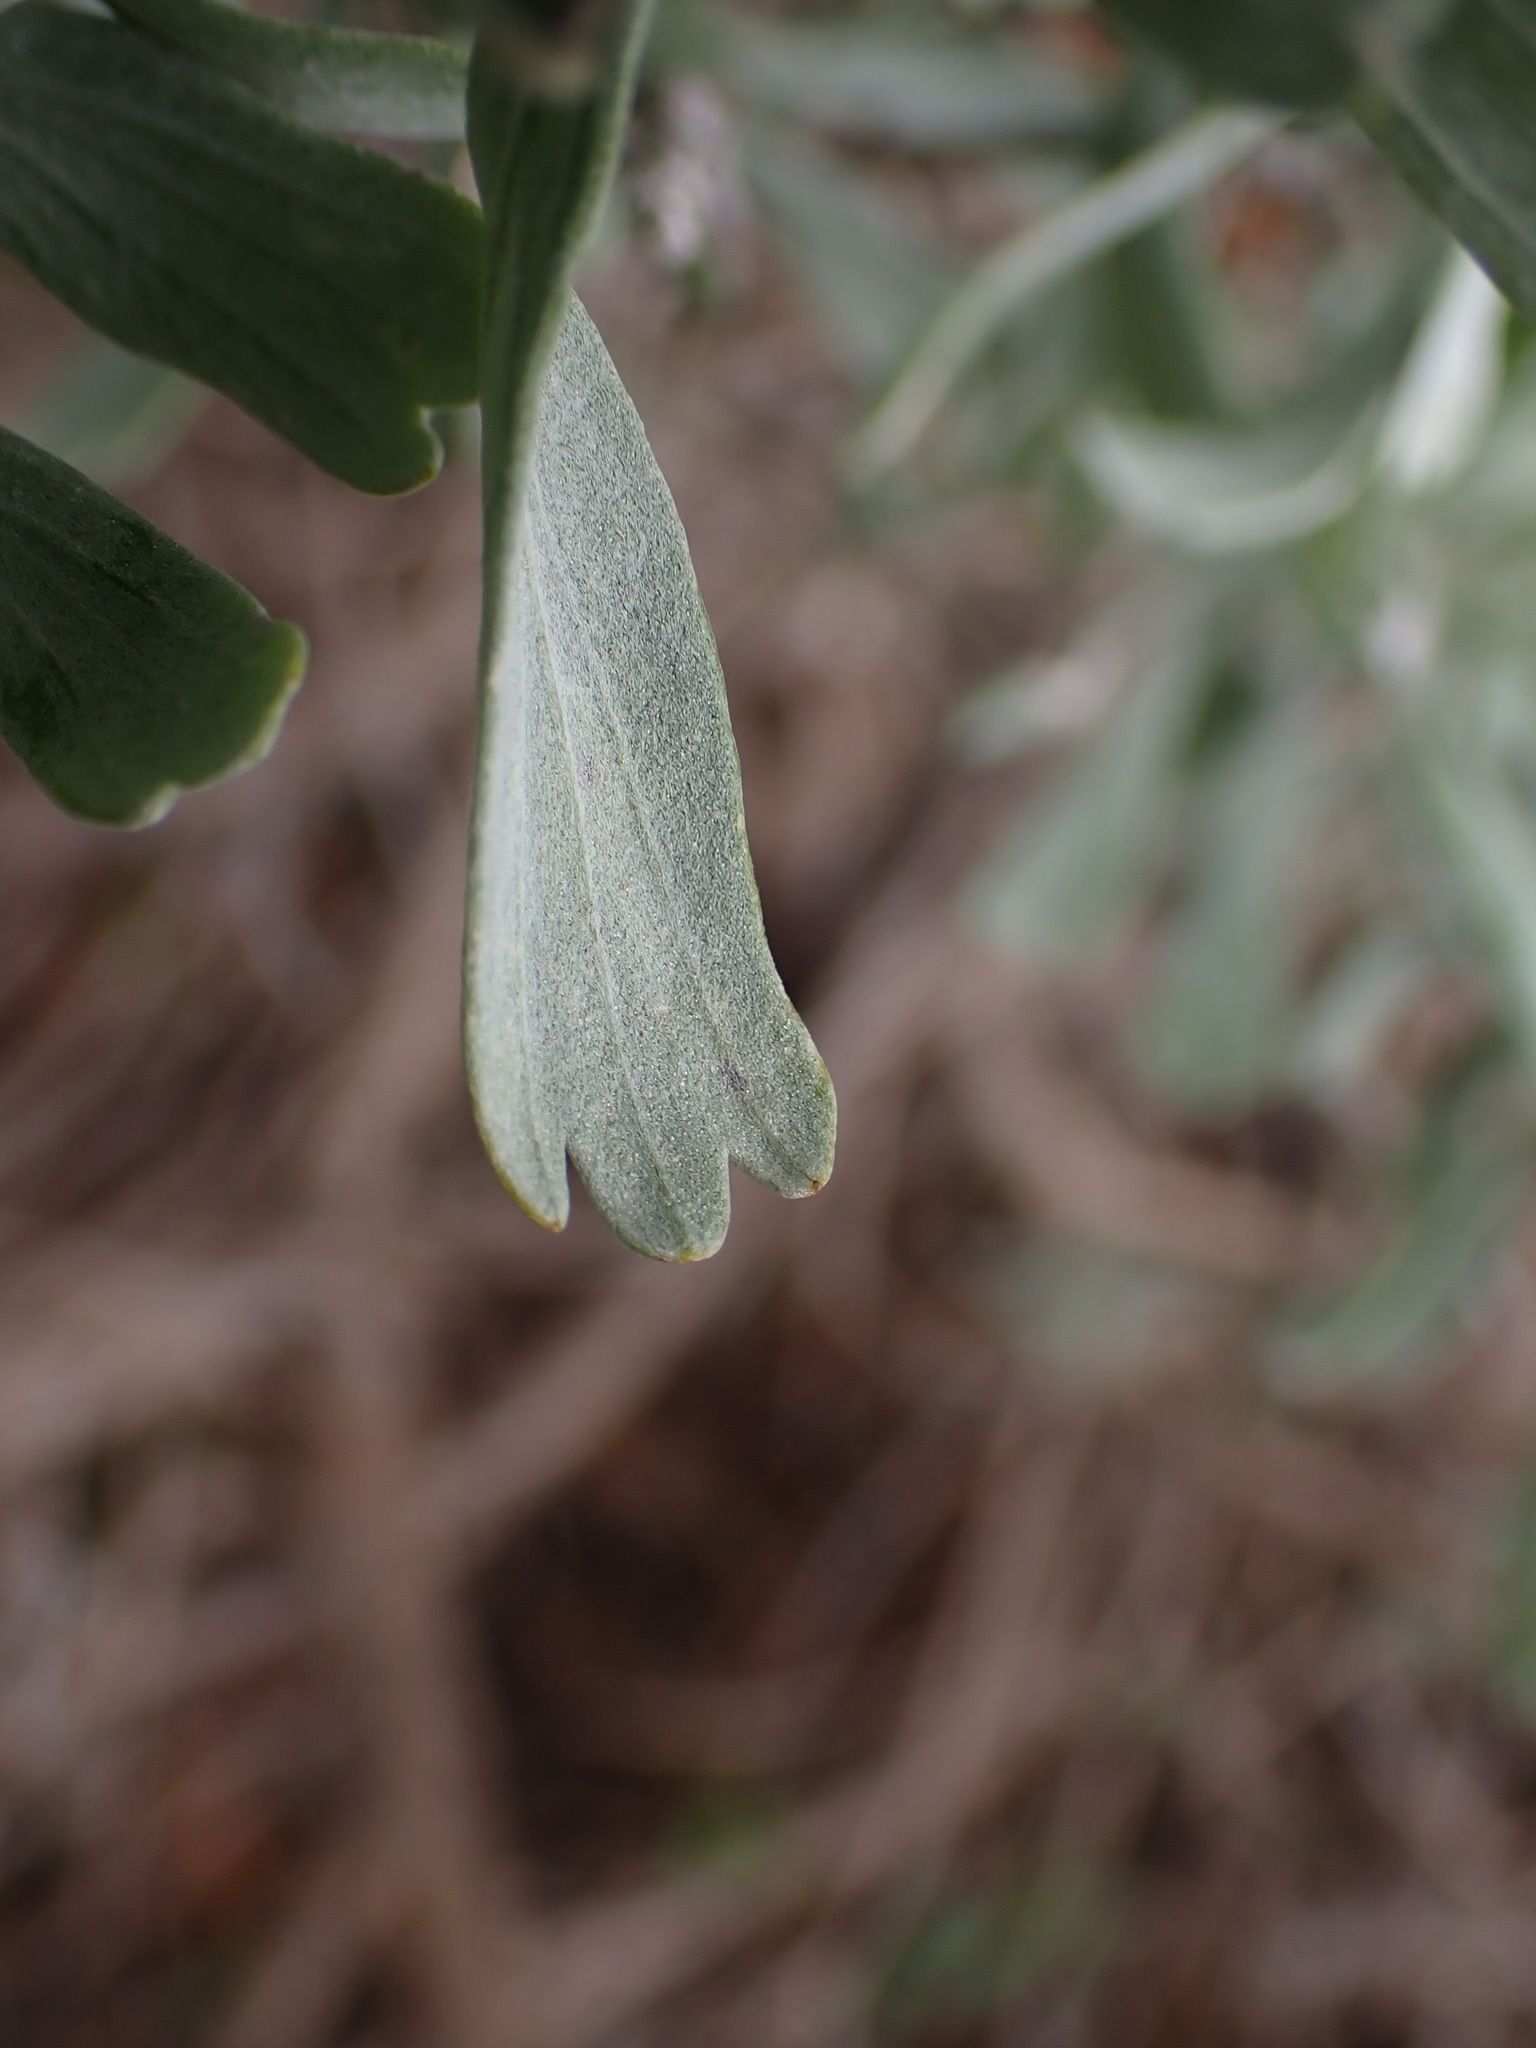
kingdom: Plantae
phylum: Tracheophyta
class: Magnoliopsida
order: Asterales
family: Asteraceae
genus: Artemisia
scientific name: Artemisia tridentata
